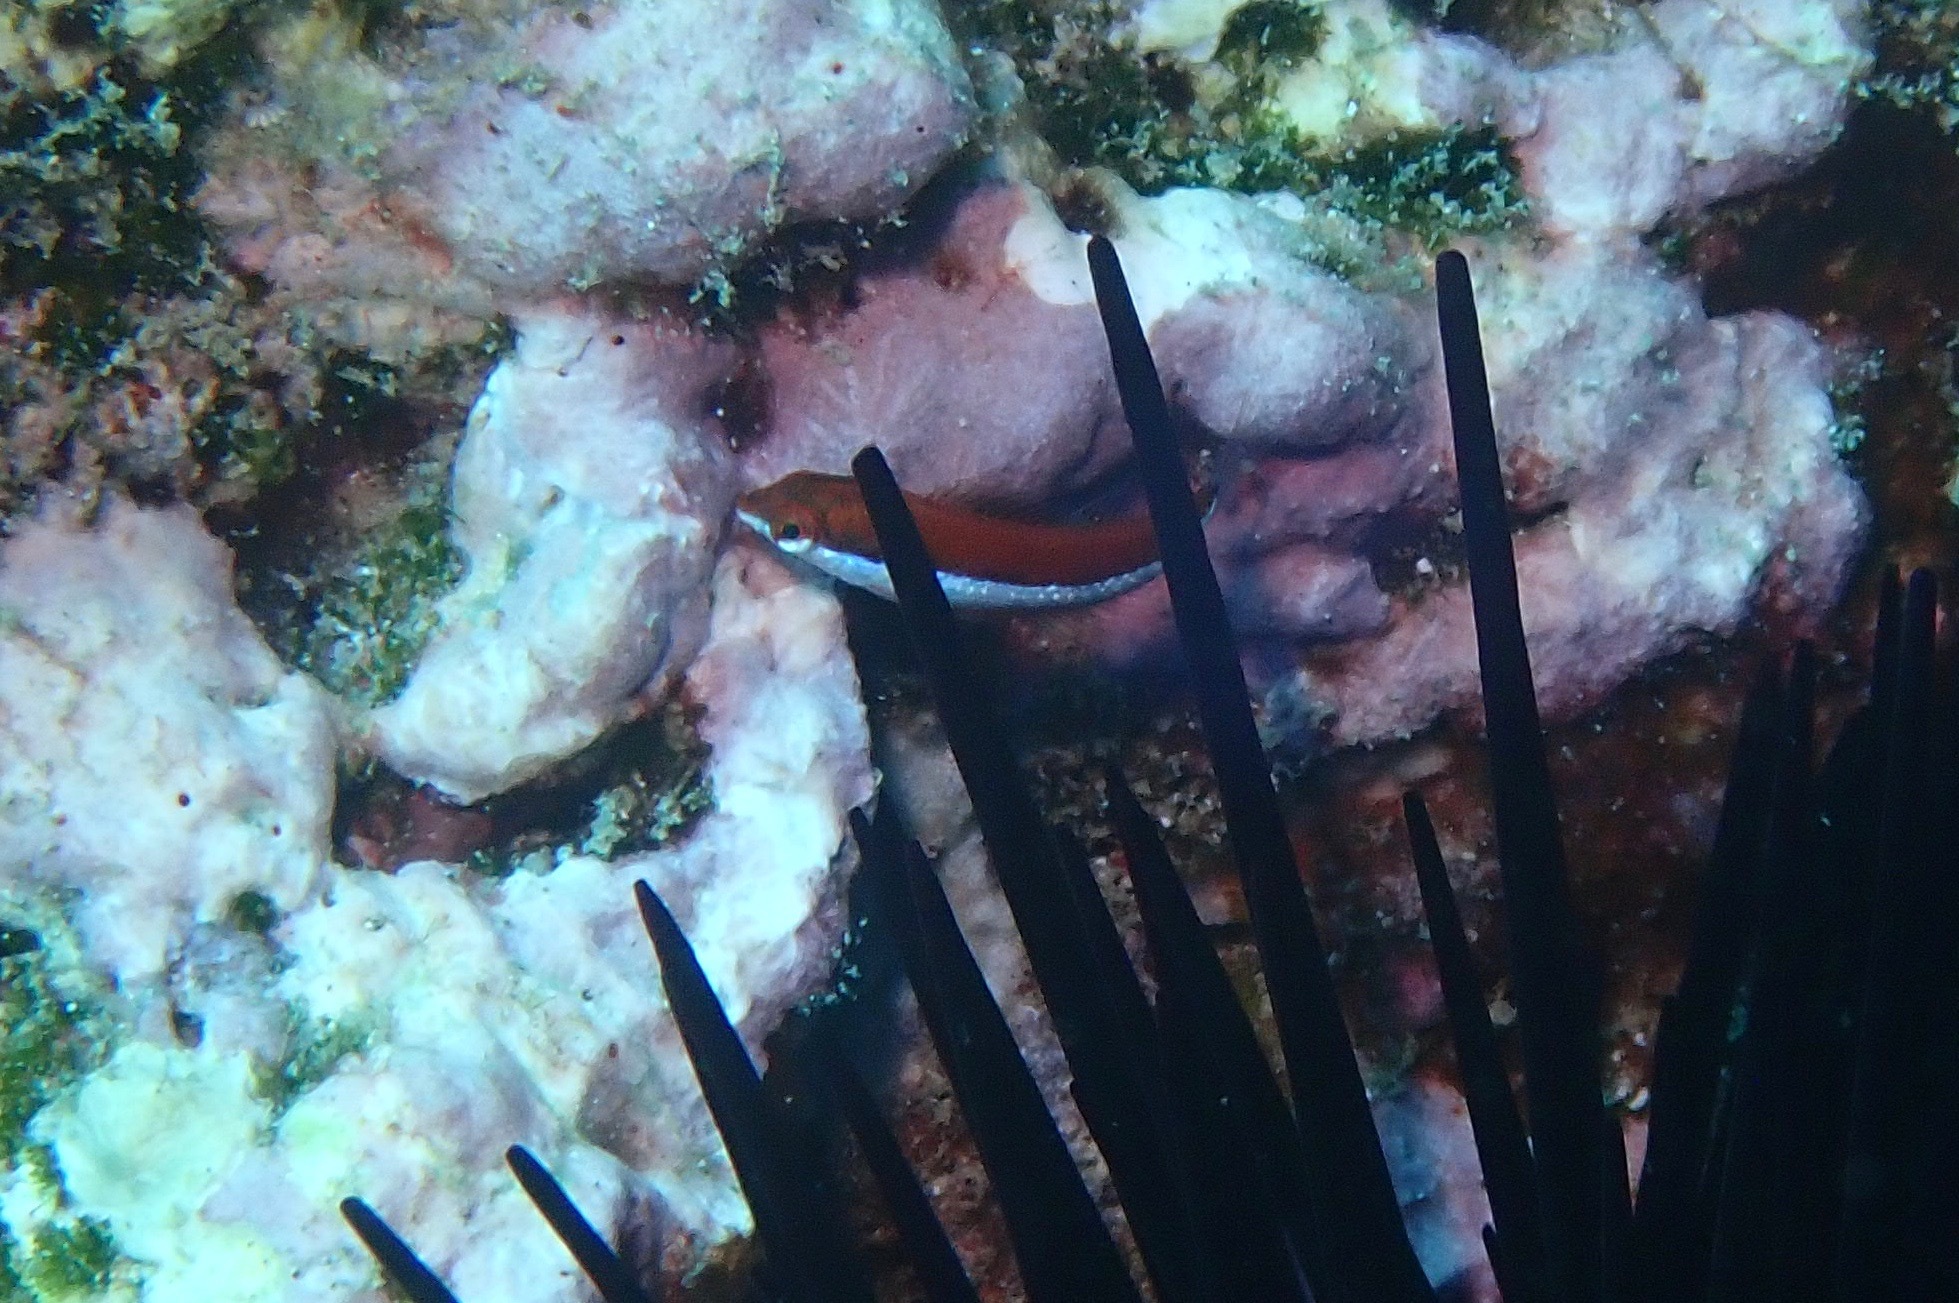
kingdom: Animalia
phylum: Chordata
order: Perciformes
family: Labridae
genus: Thalassoma
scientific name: Thalassoma lutescens
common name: Green moon wrasse
